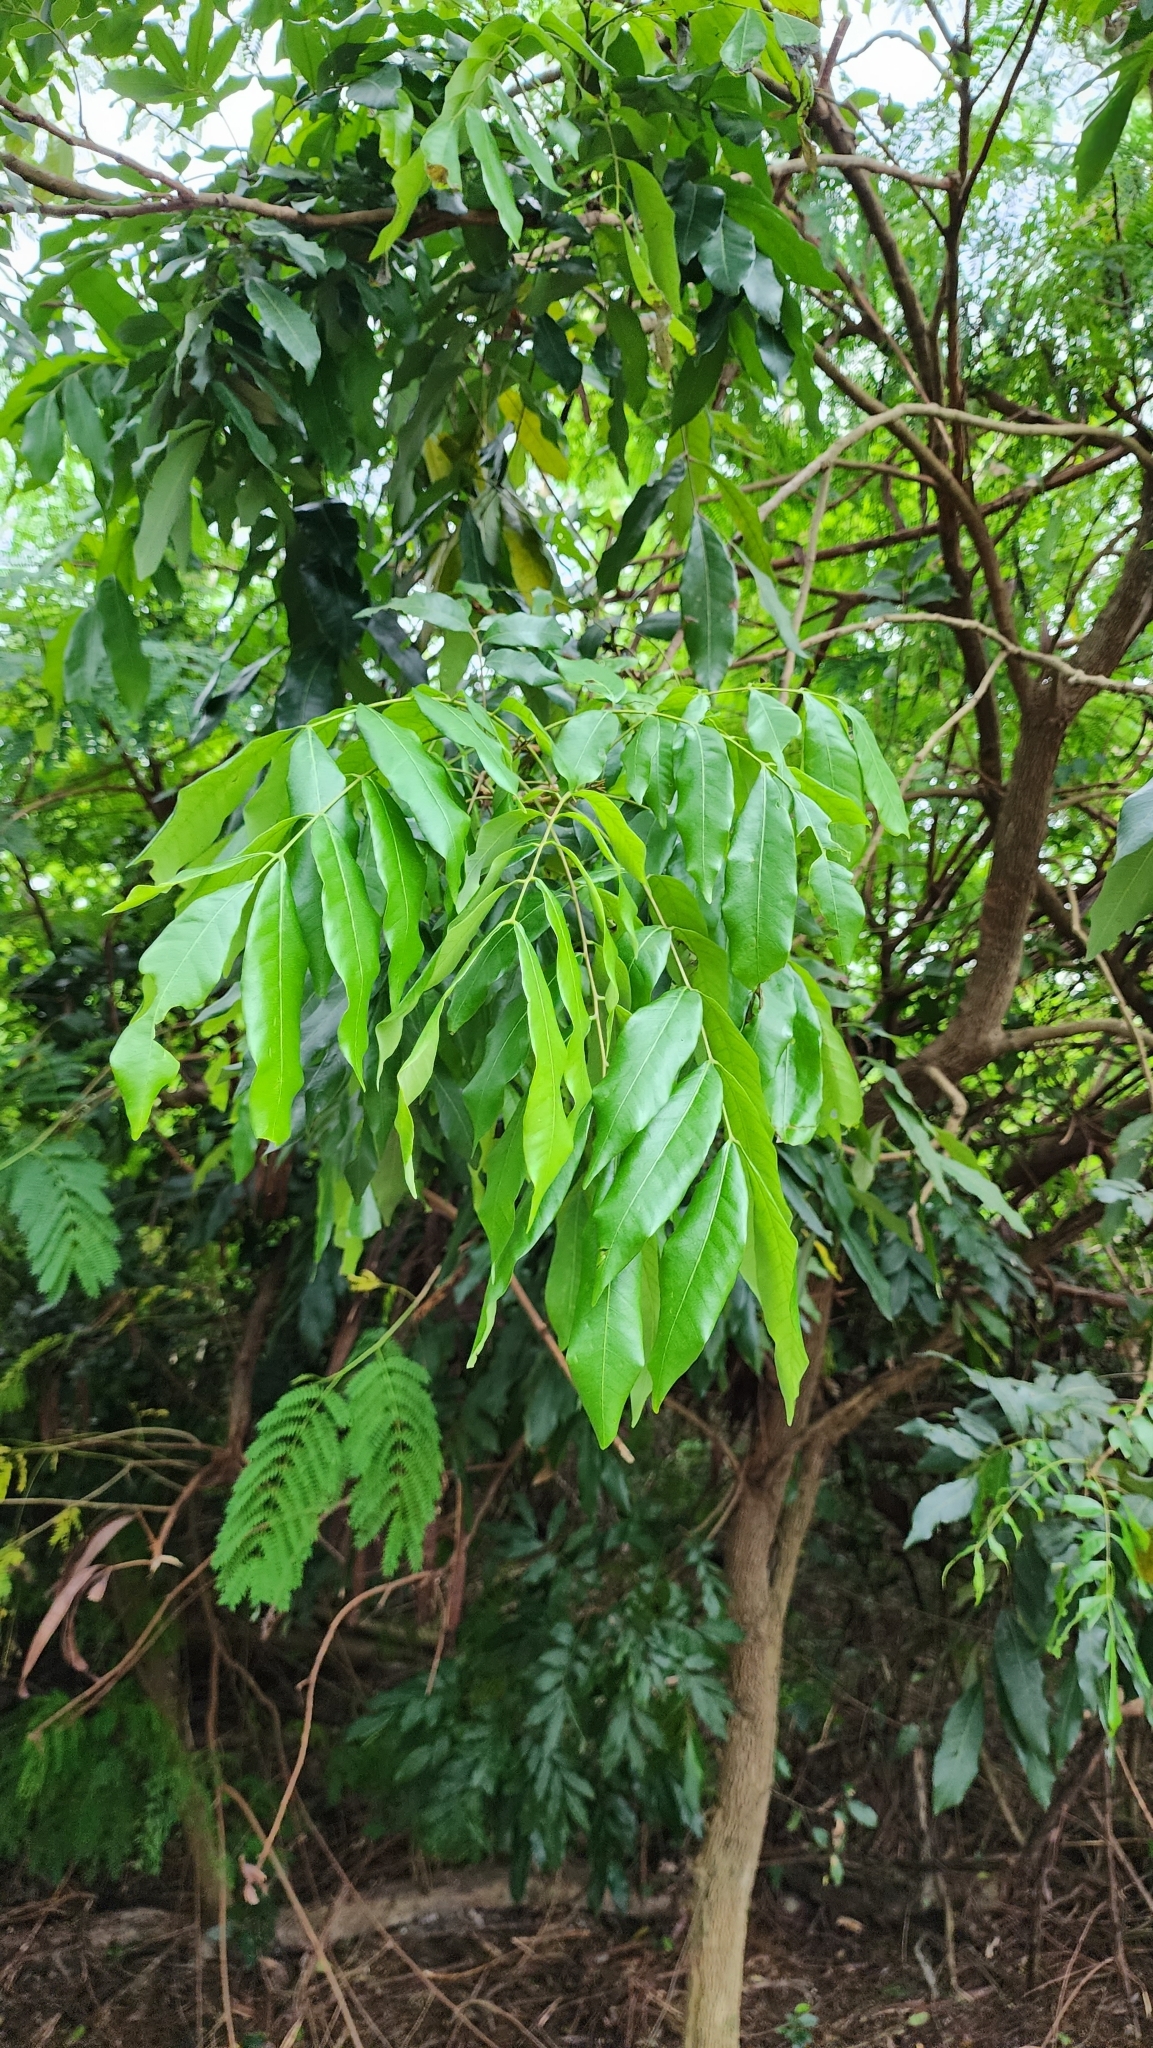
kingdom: Plantae
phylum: Tracheophyta
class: Magnoliopsida
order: Sapindales
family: Sapindaceae
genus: Dimocarpus
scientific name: Dimocarpus longan
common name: Longan
